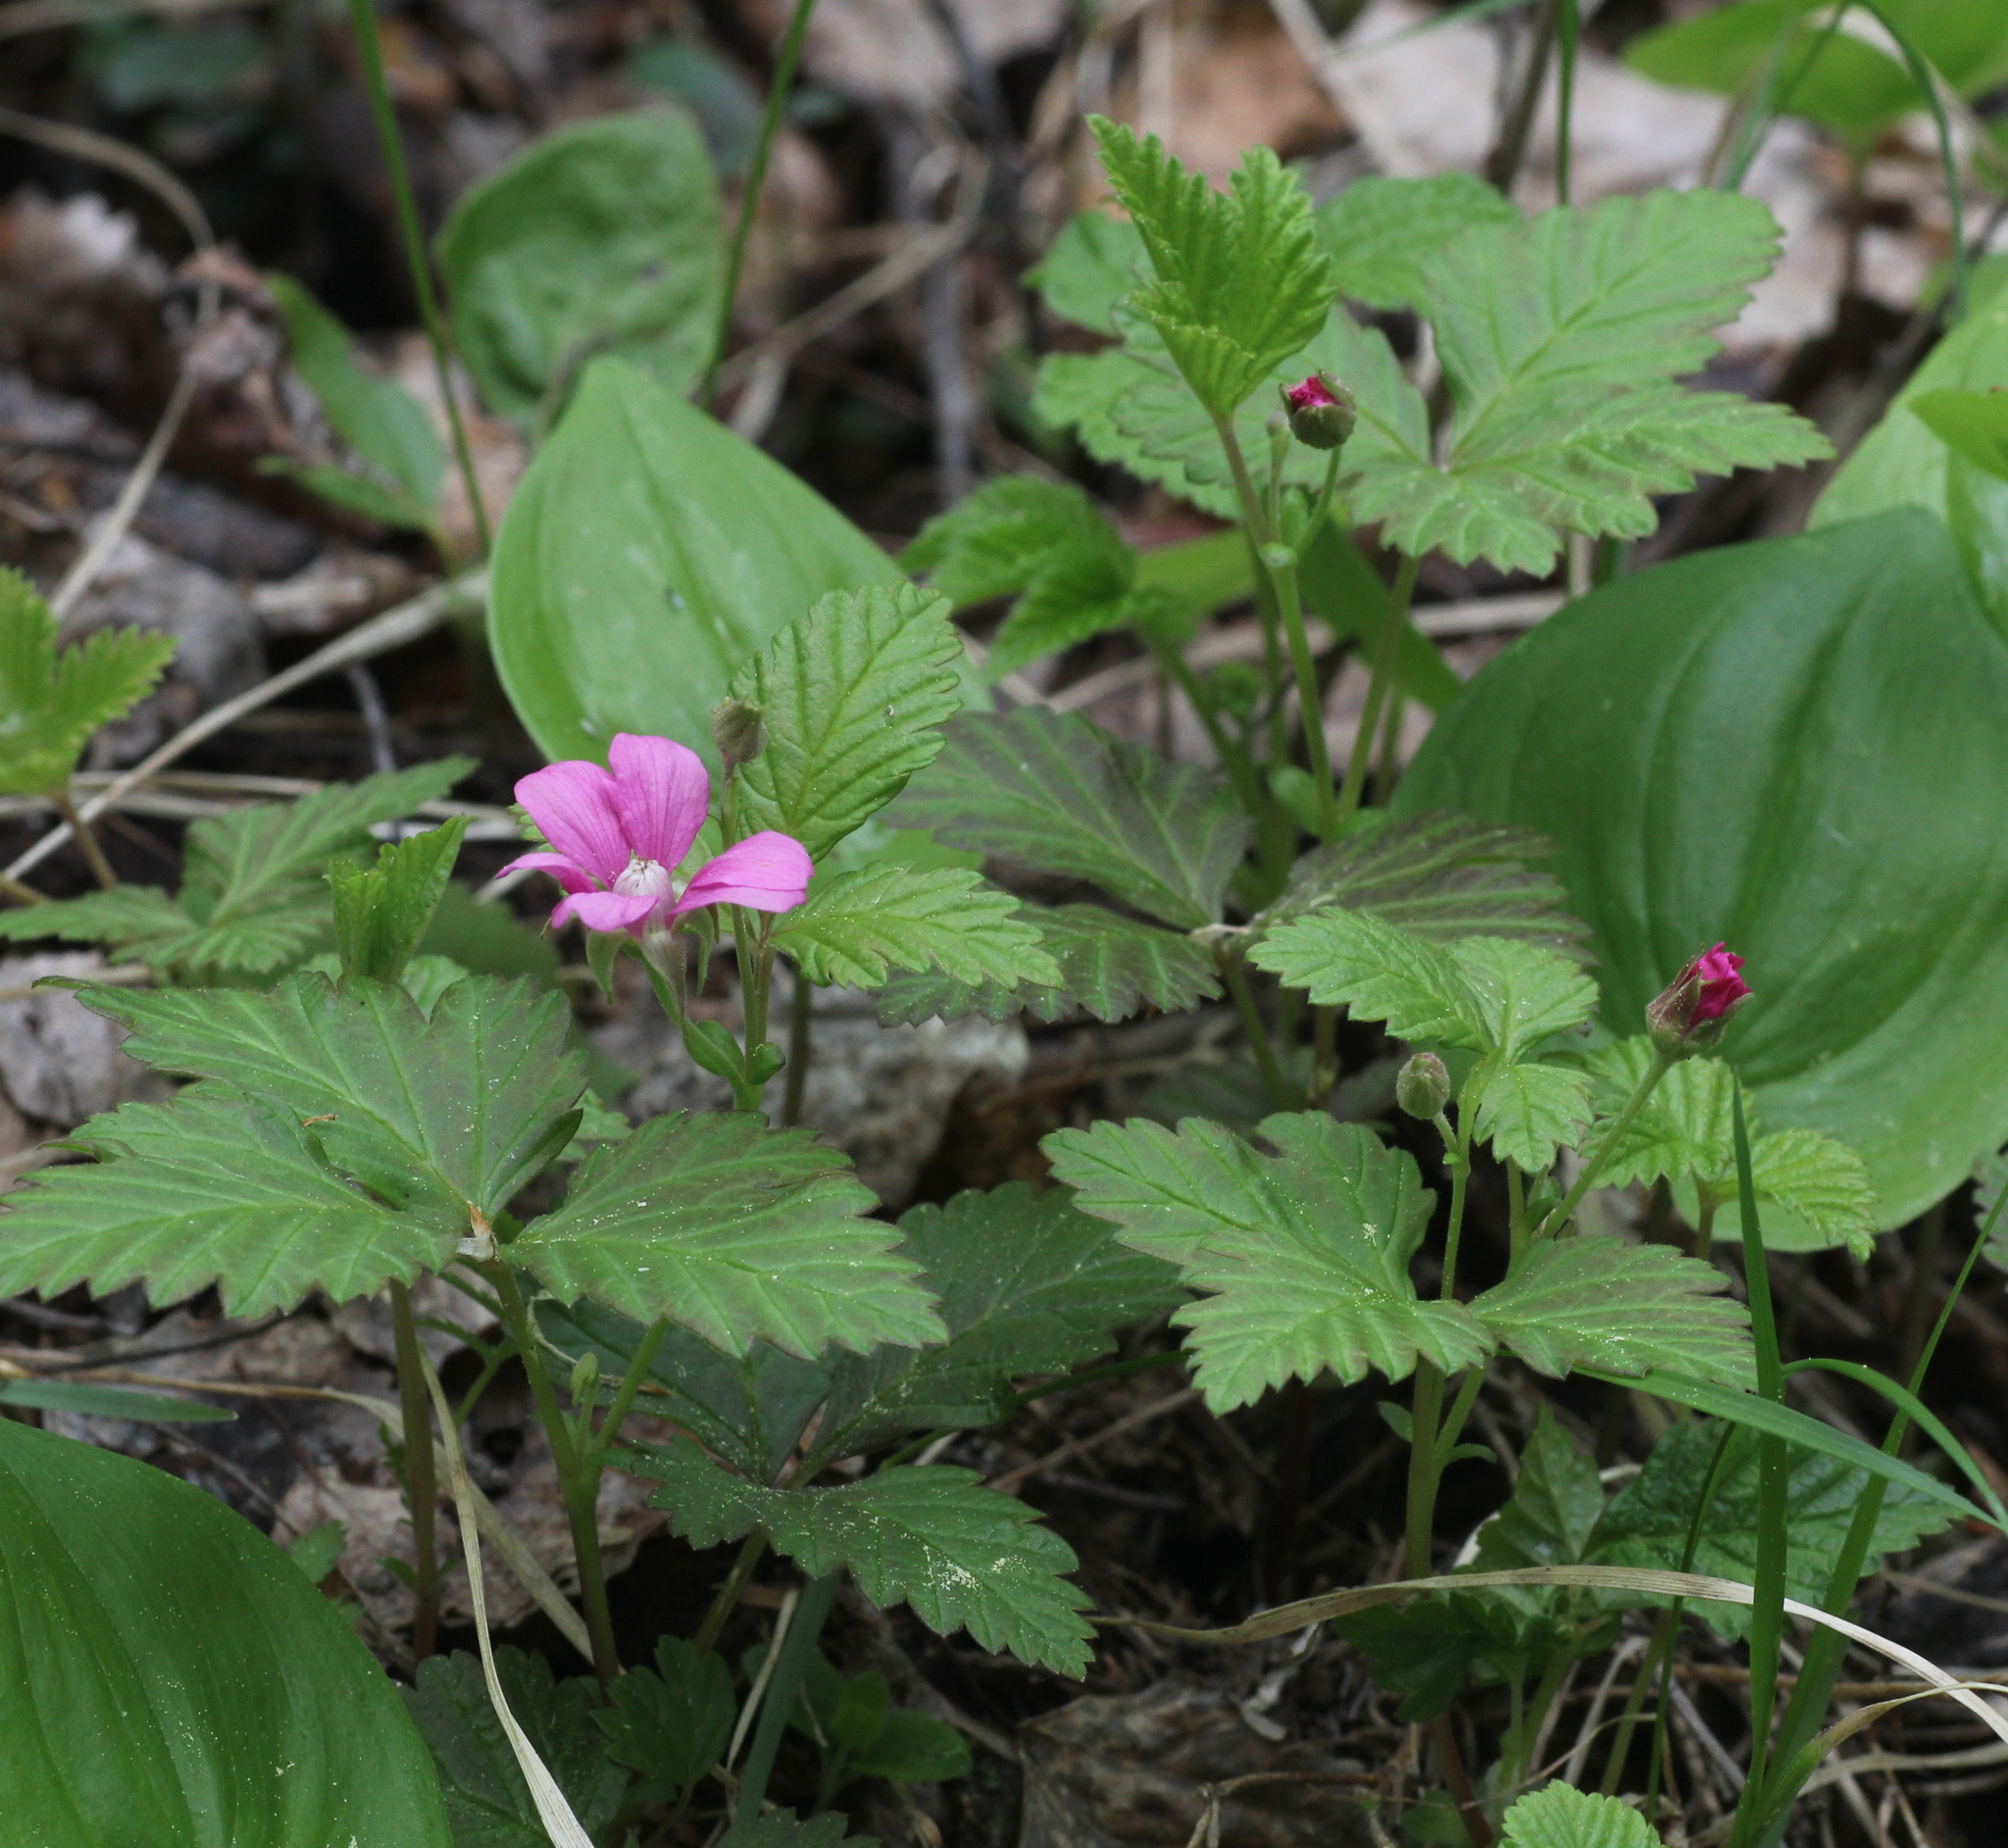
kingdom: Plantae
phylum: Tracheophyta
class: Magnoliopsida
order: Rosales
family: Rosaceae
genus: Rubus
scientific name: Rubus arcticus
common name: Arctic bramble
